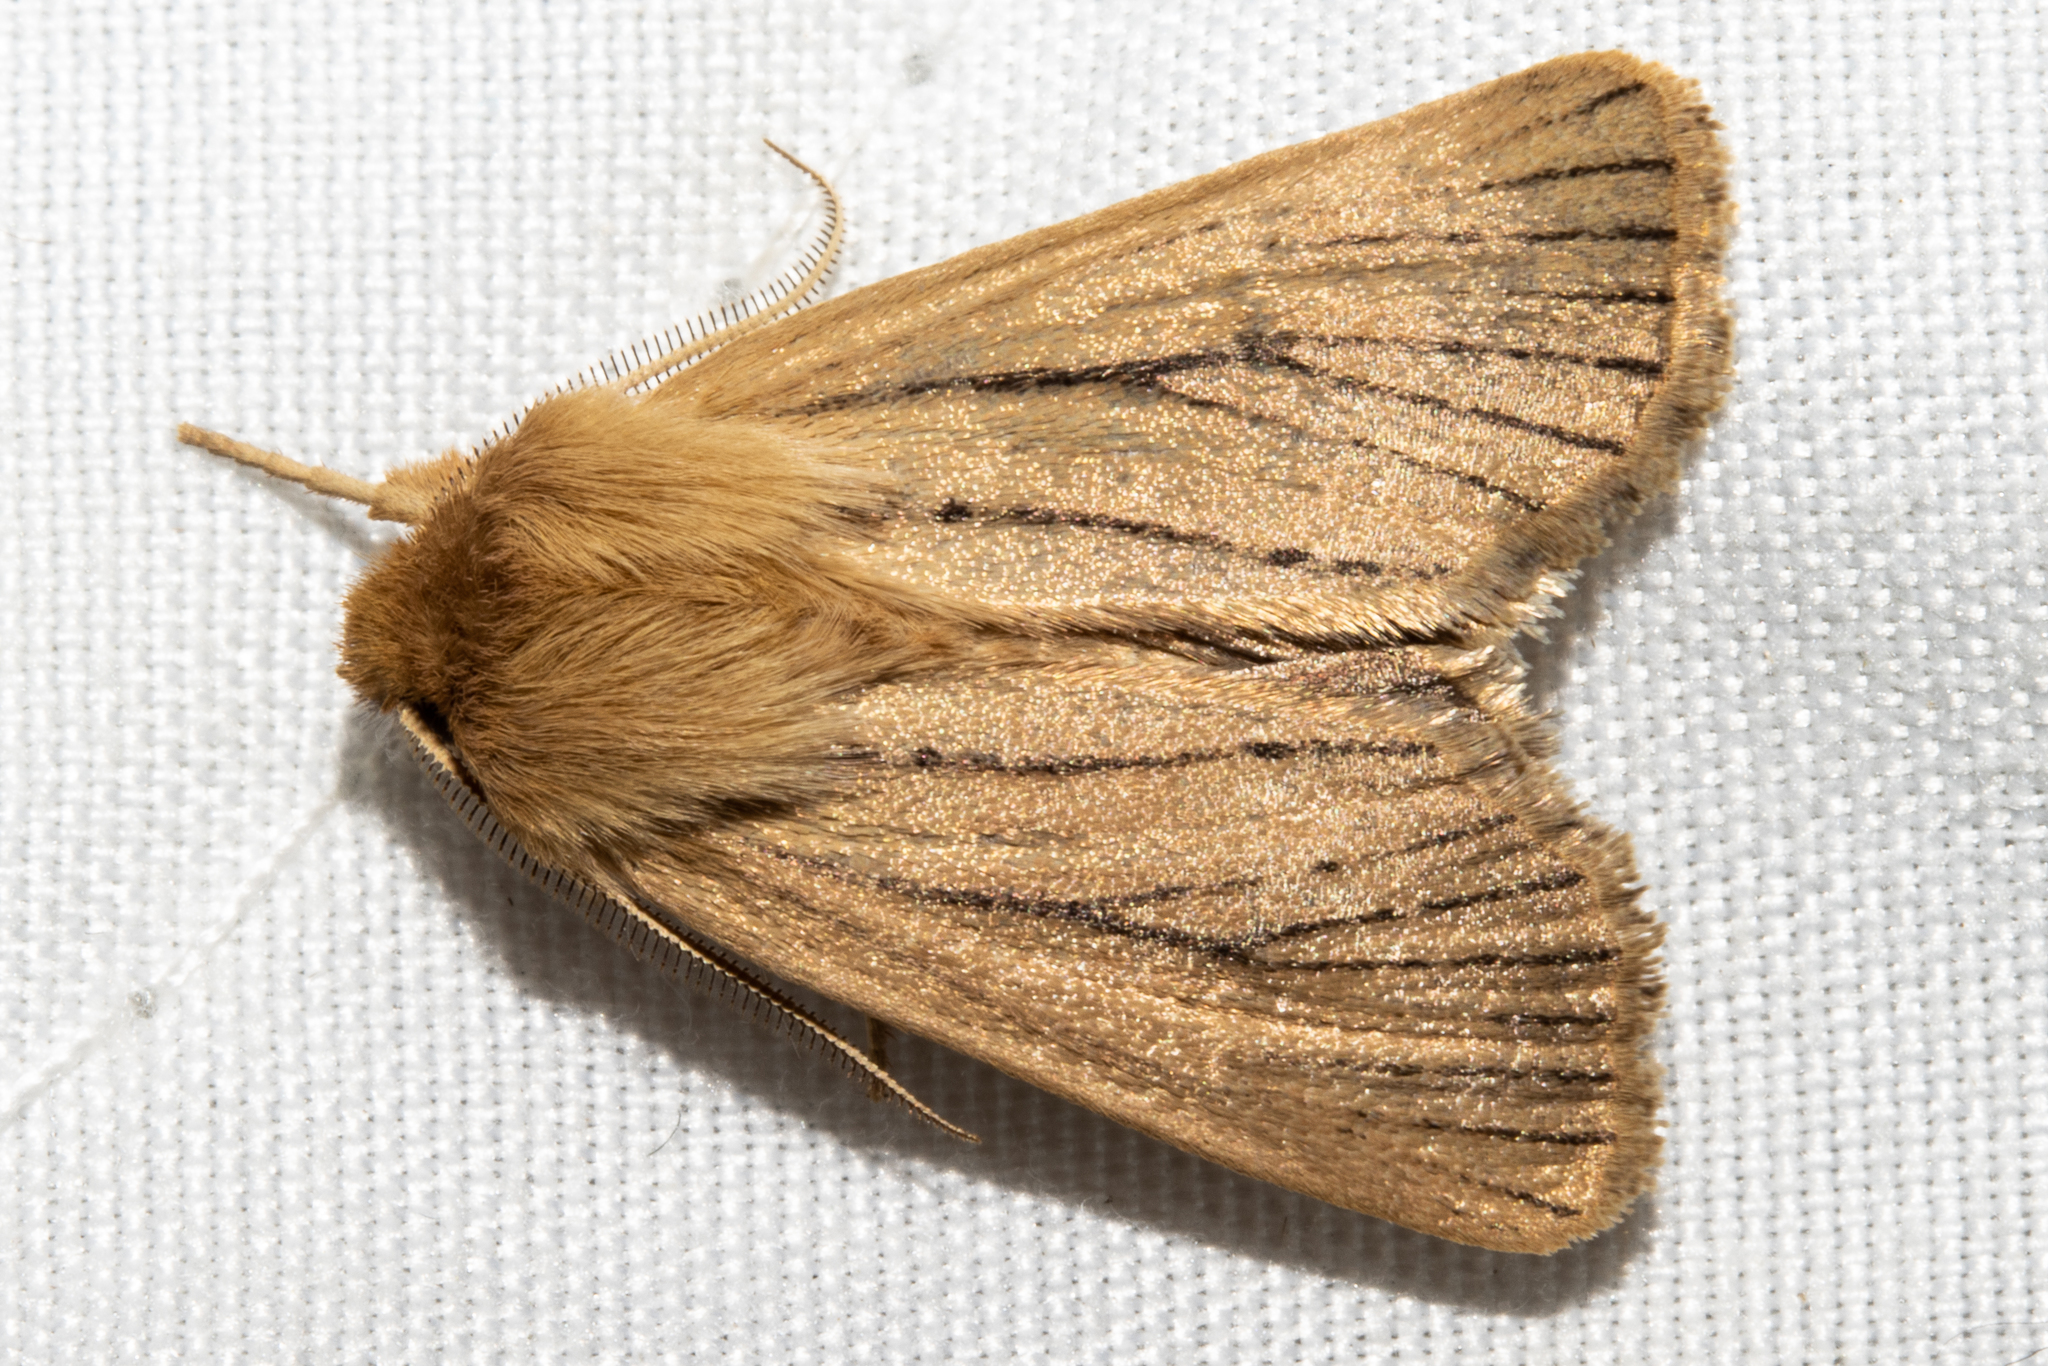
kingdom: Animalia
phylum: Arthropoda
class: Insecta
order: Lepidoptera
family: Noctuidae
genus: Ichneutica
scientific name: Ichneutica
